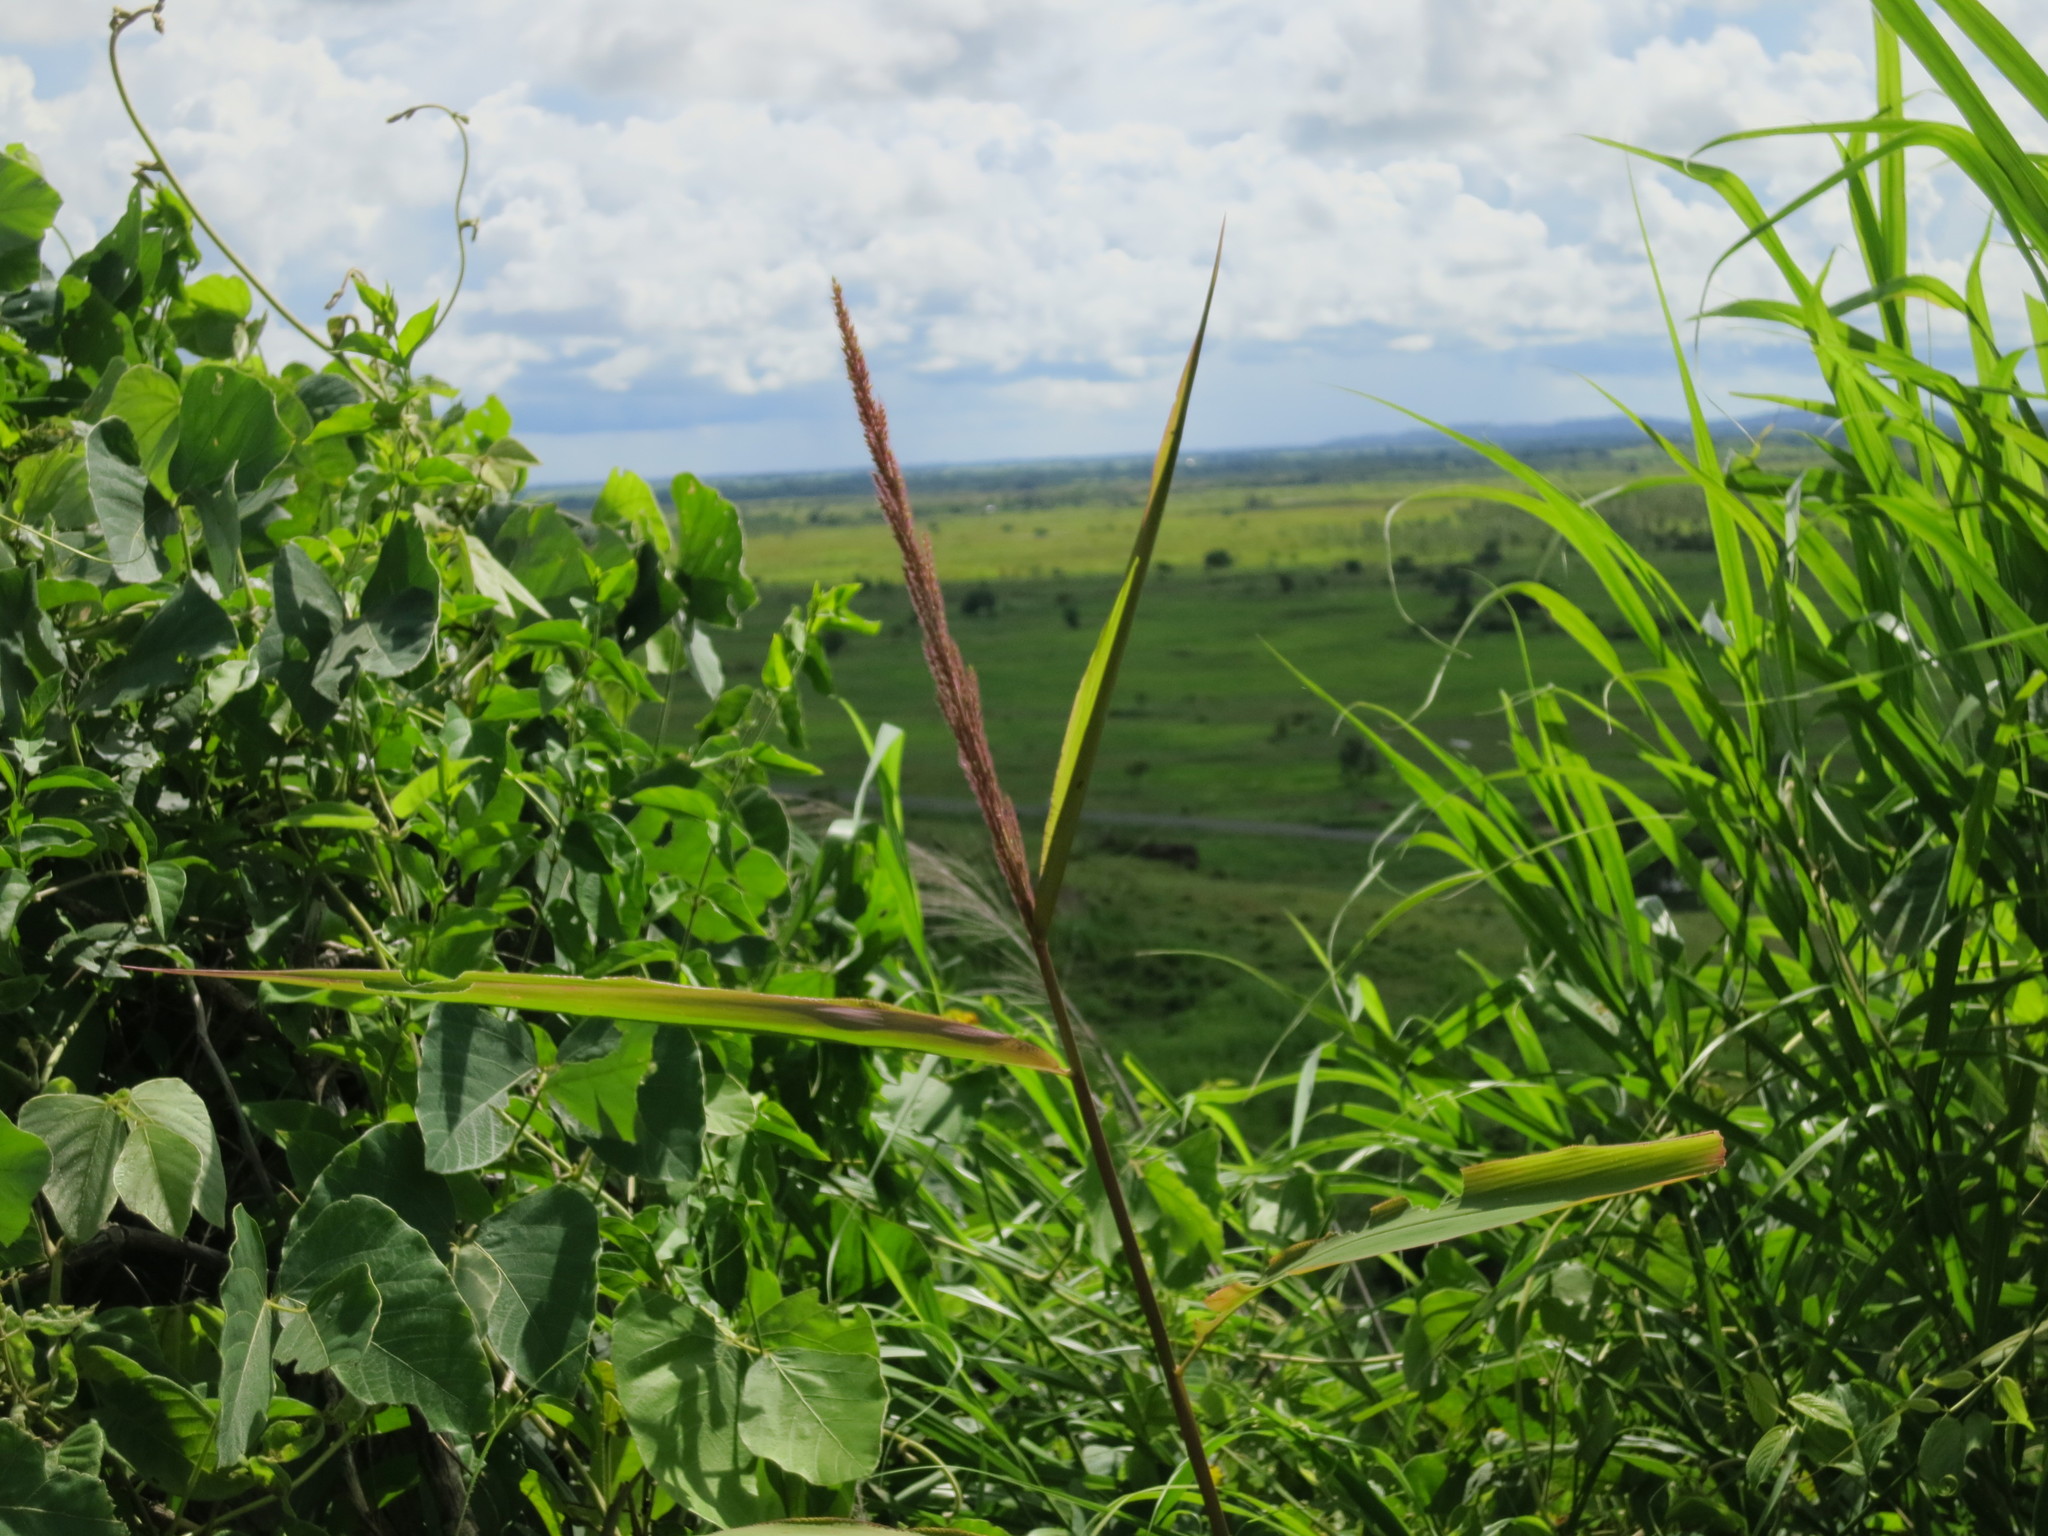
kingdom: Plantae
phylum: Tracheophyta
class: Liliopsida
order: Poales
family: Poaceae
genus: Setaria
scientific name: Setaria vatkeana
